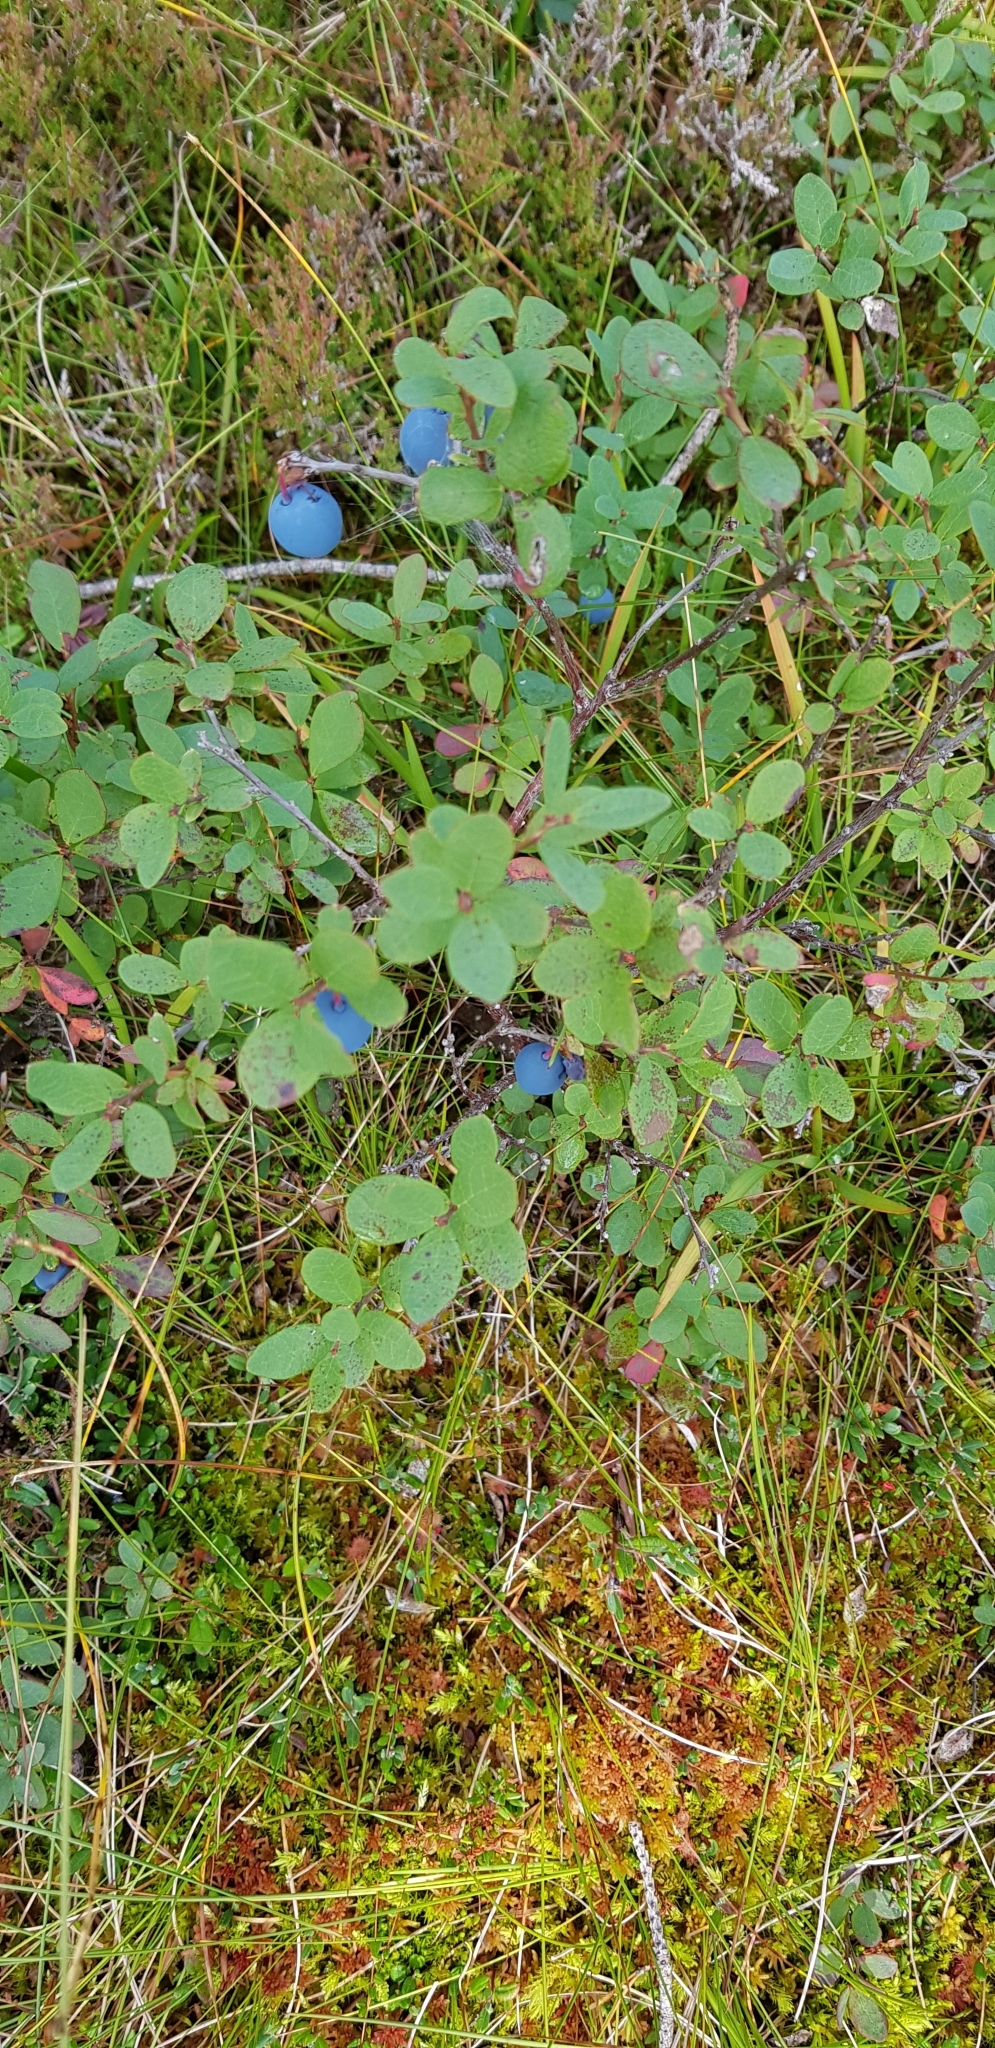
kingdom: Plantae
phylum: Tracheophyta
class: Magnoliopsida
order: Ericales
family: Ericaceae
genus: Vaccinium
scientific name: Vaccinium uliginosum
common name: Bog bilberry
